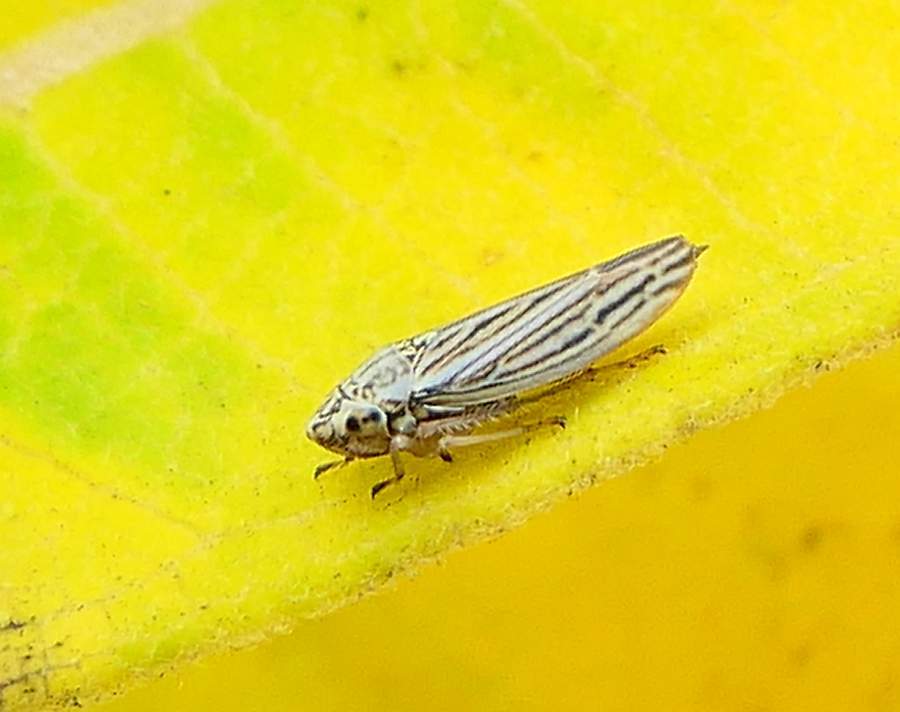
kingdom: Animalia
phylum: Arthropoda
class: Insecta
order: Hemiptera
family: Cicadellidae
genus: Neokolla
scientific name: Neokolla hieroglyphica
